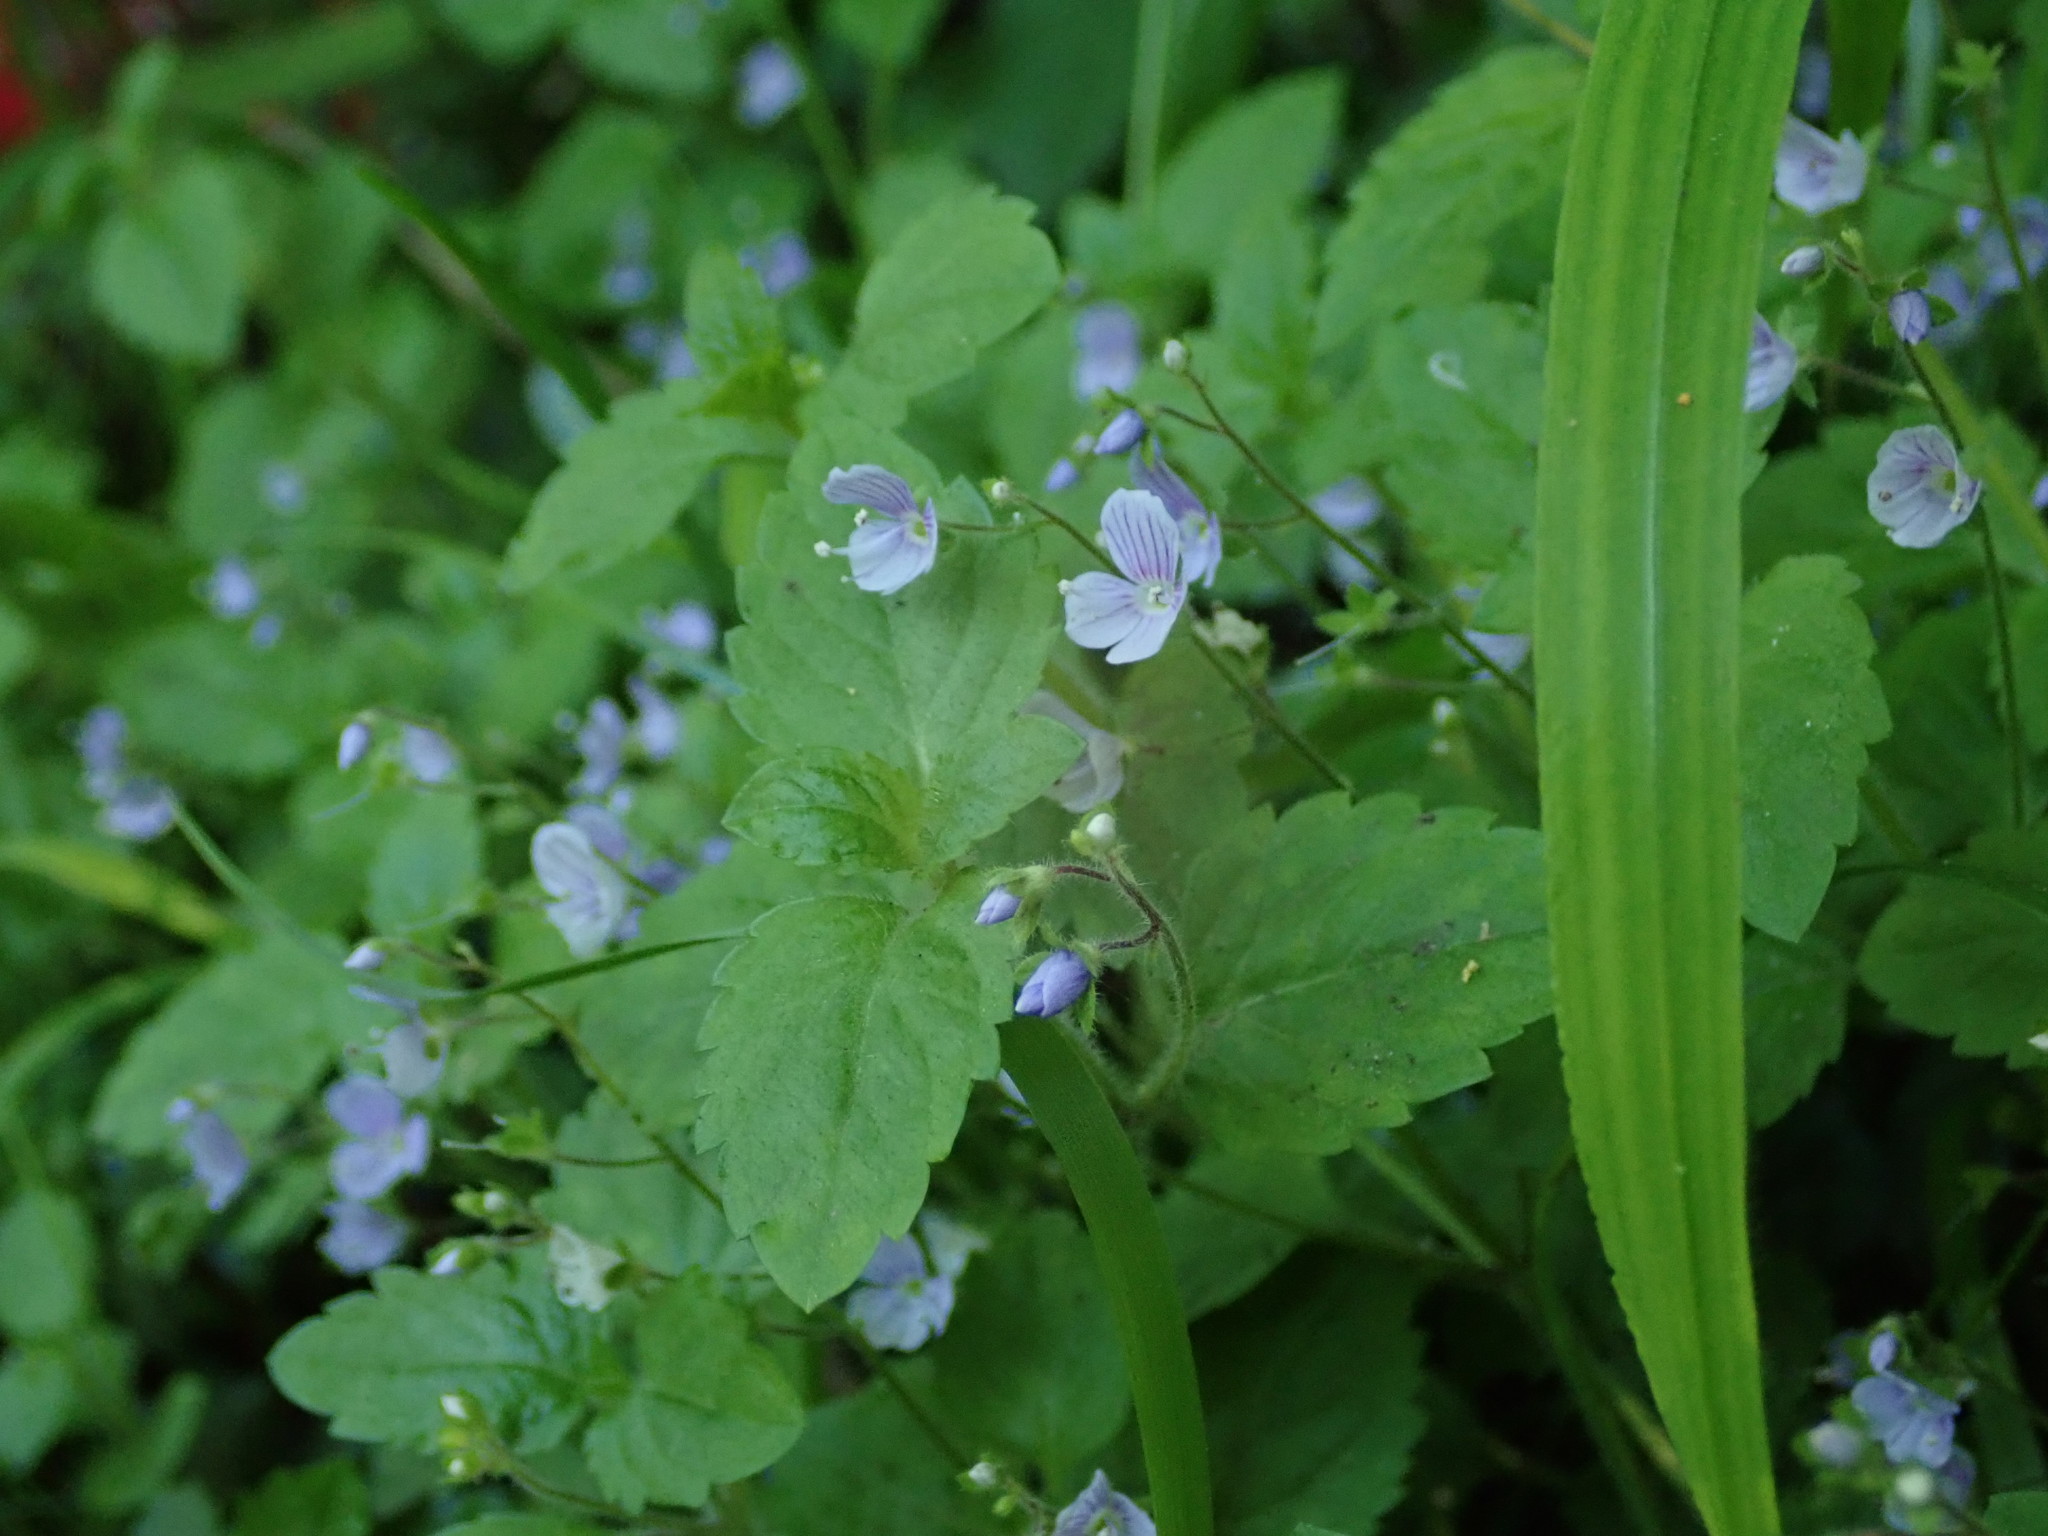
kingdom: Plantae
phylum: Tracheophyta
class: Magnoliopsida
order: Lamiales
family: Plantaginaceae
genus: Veronica
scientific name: Veronica montana
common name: Wood speedwell
